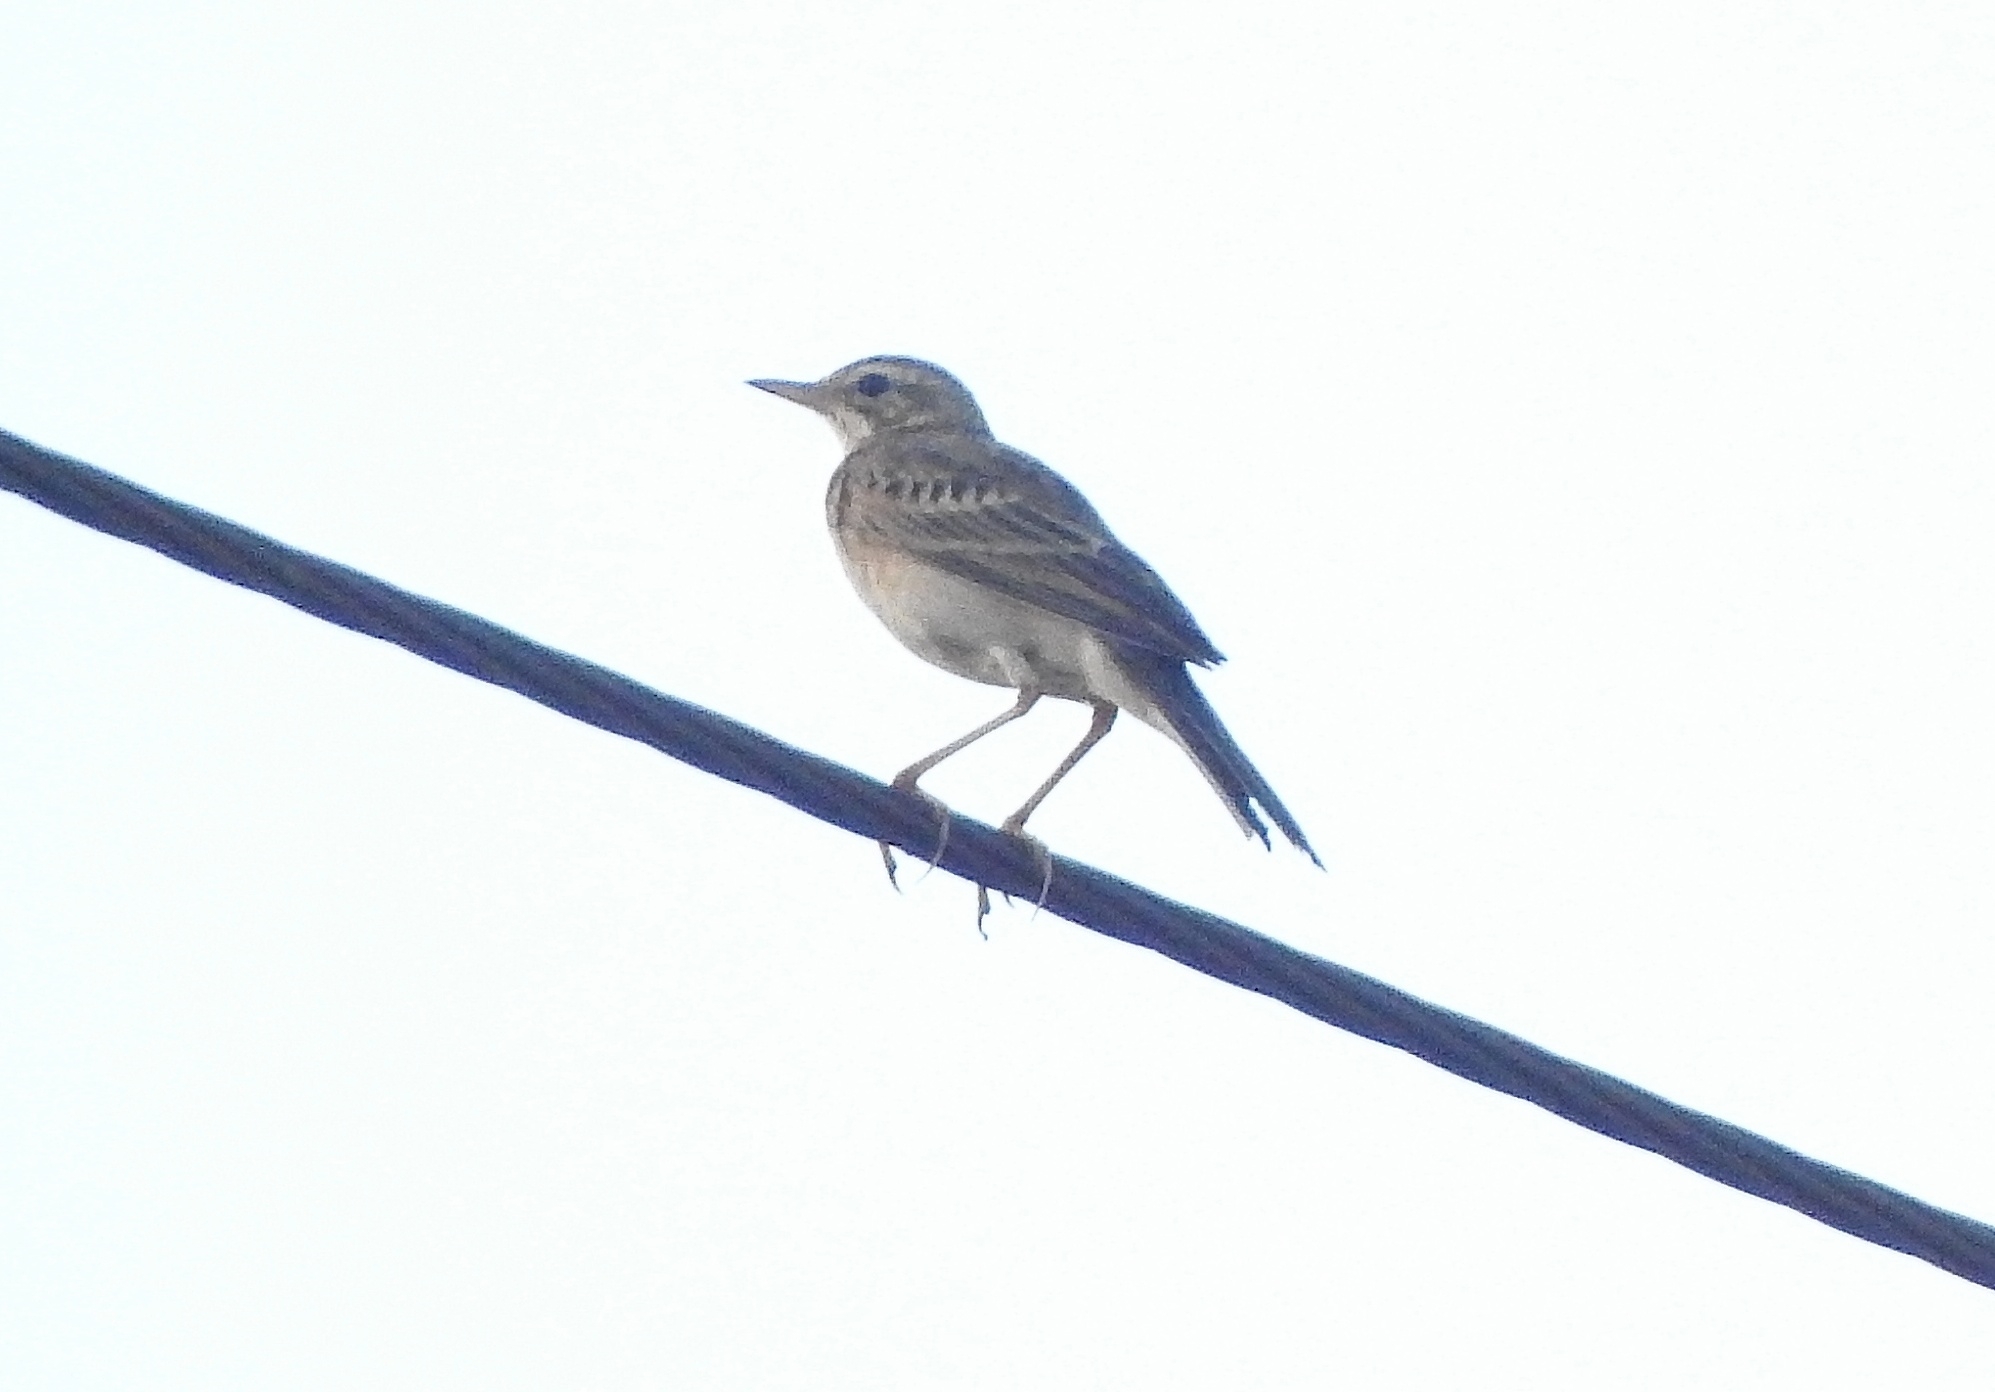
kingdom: Animalia
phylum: Chordata
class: Aves
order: Passeriformes
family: Motacillidae
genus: Anthus
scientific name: Anthus rufulus
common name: Paddyfield pipit
